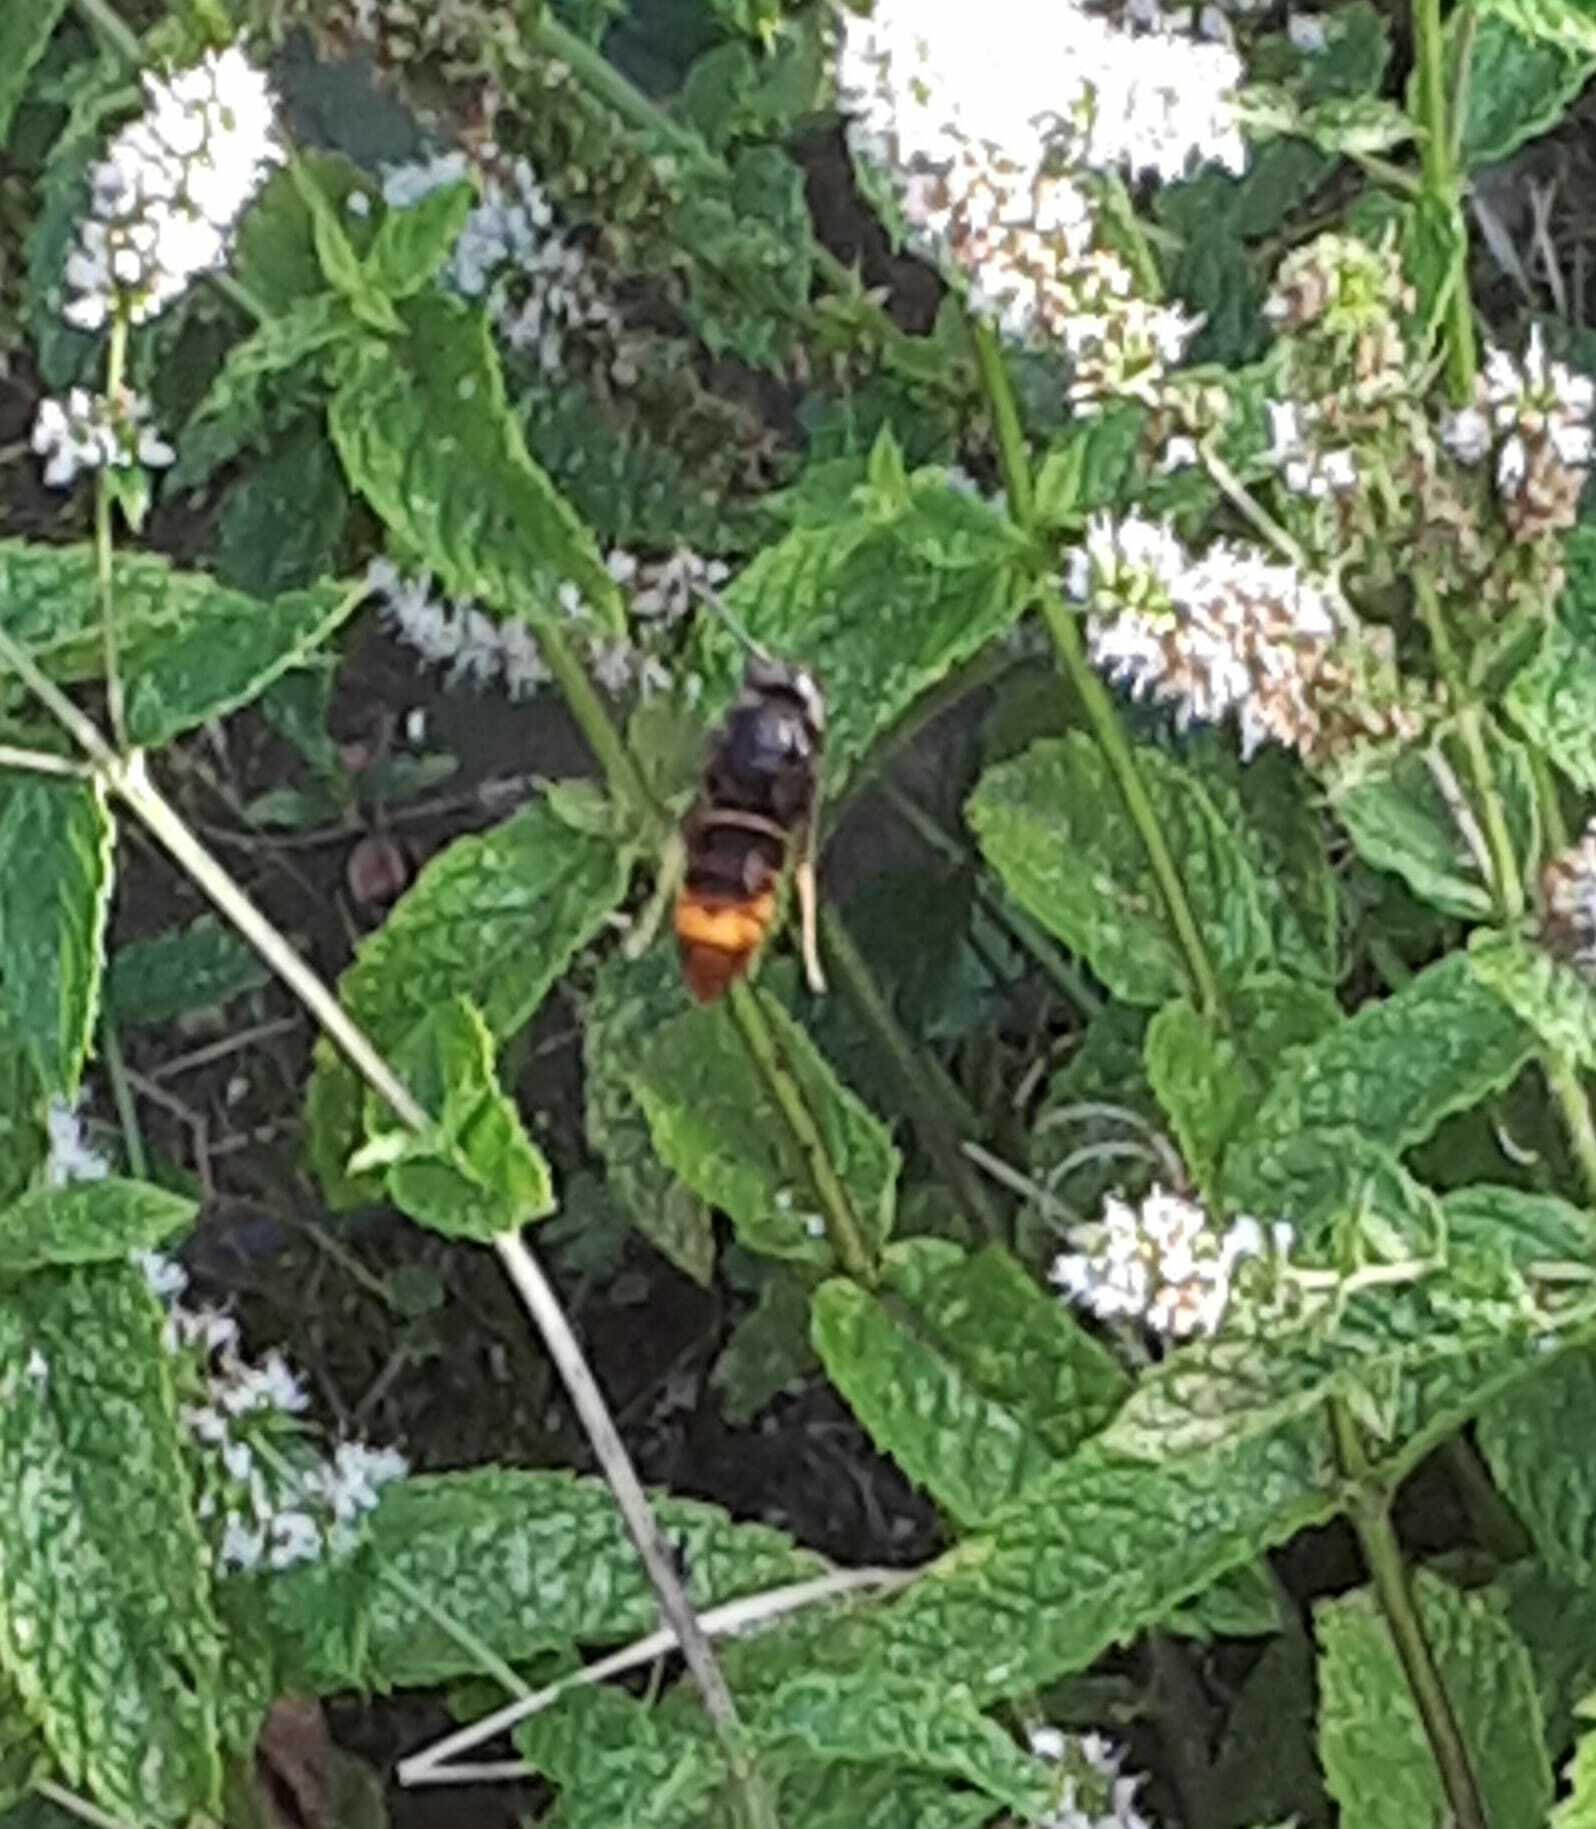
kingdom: Animalia
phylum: Arthropoda
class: Insecta
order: Hymenoptera
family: Vespidae
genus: Vespa
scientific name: Vespa velutina
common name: Asian hornet
